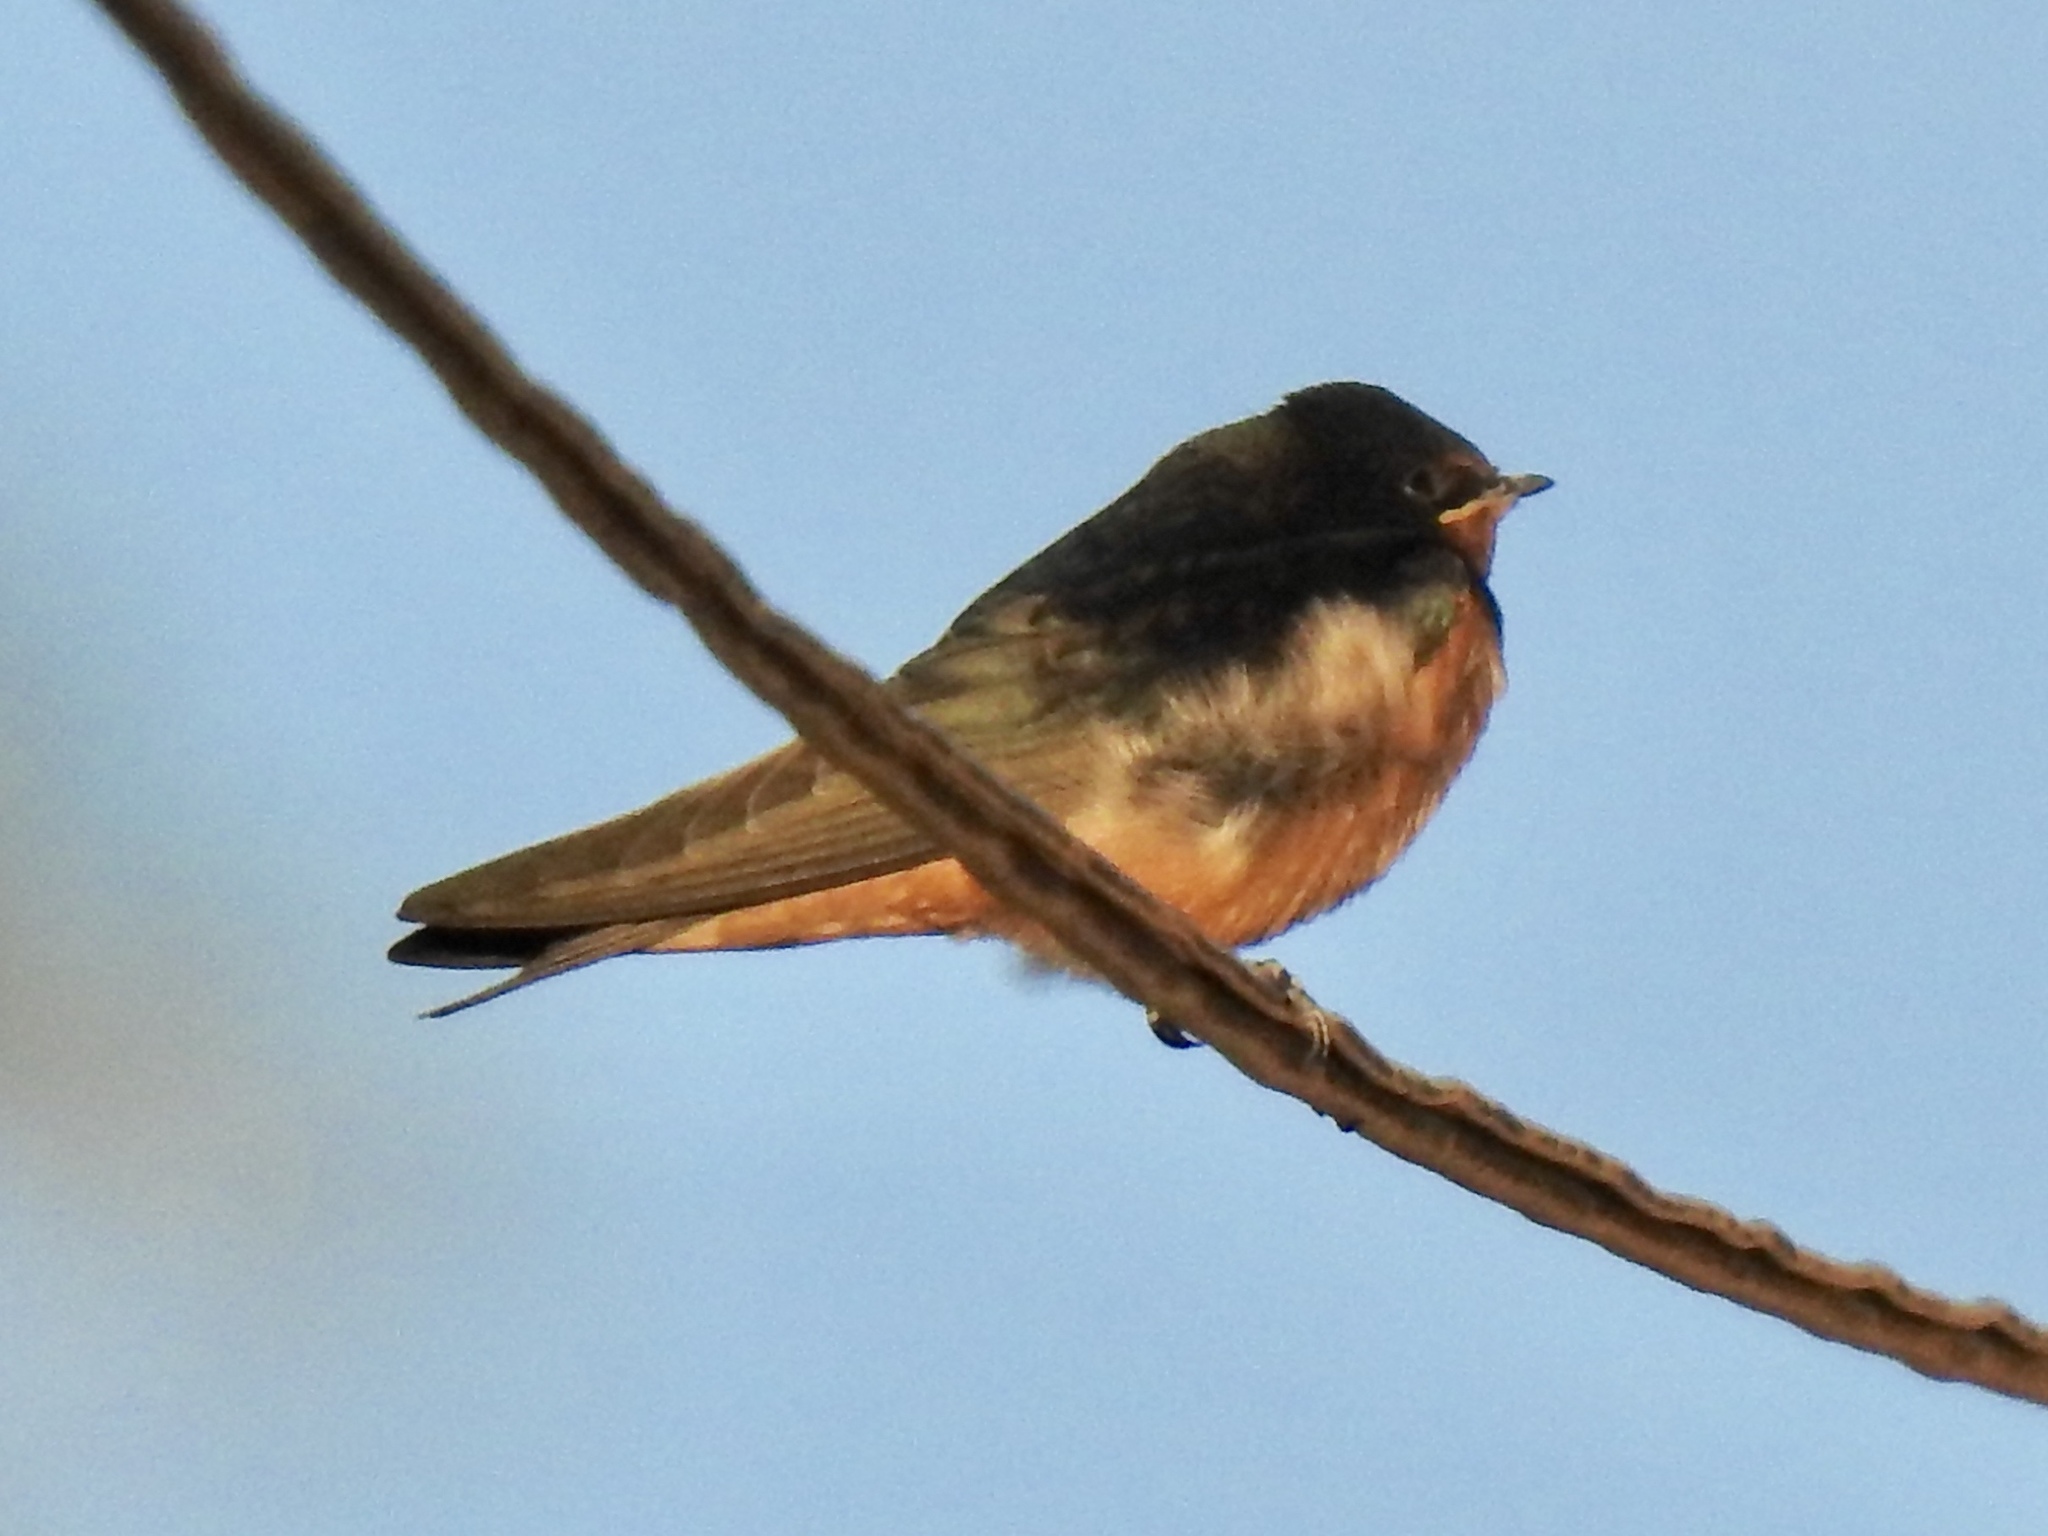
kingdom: Animalia
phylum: Chordata
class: Aves
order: Passeriformes
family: Hirundinidae
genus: Hirundo
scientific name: Hirundo rustica
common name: Barn swallow
